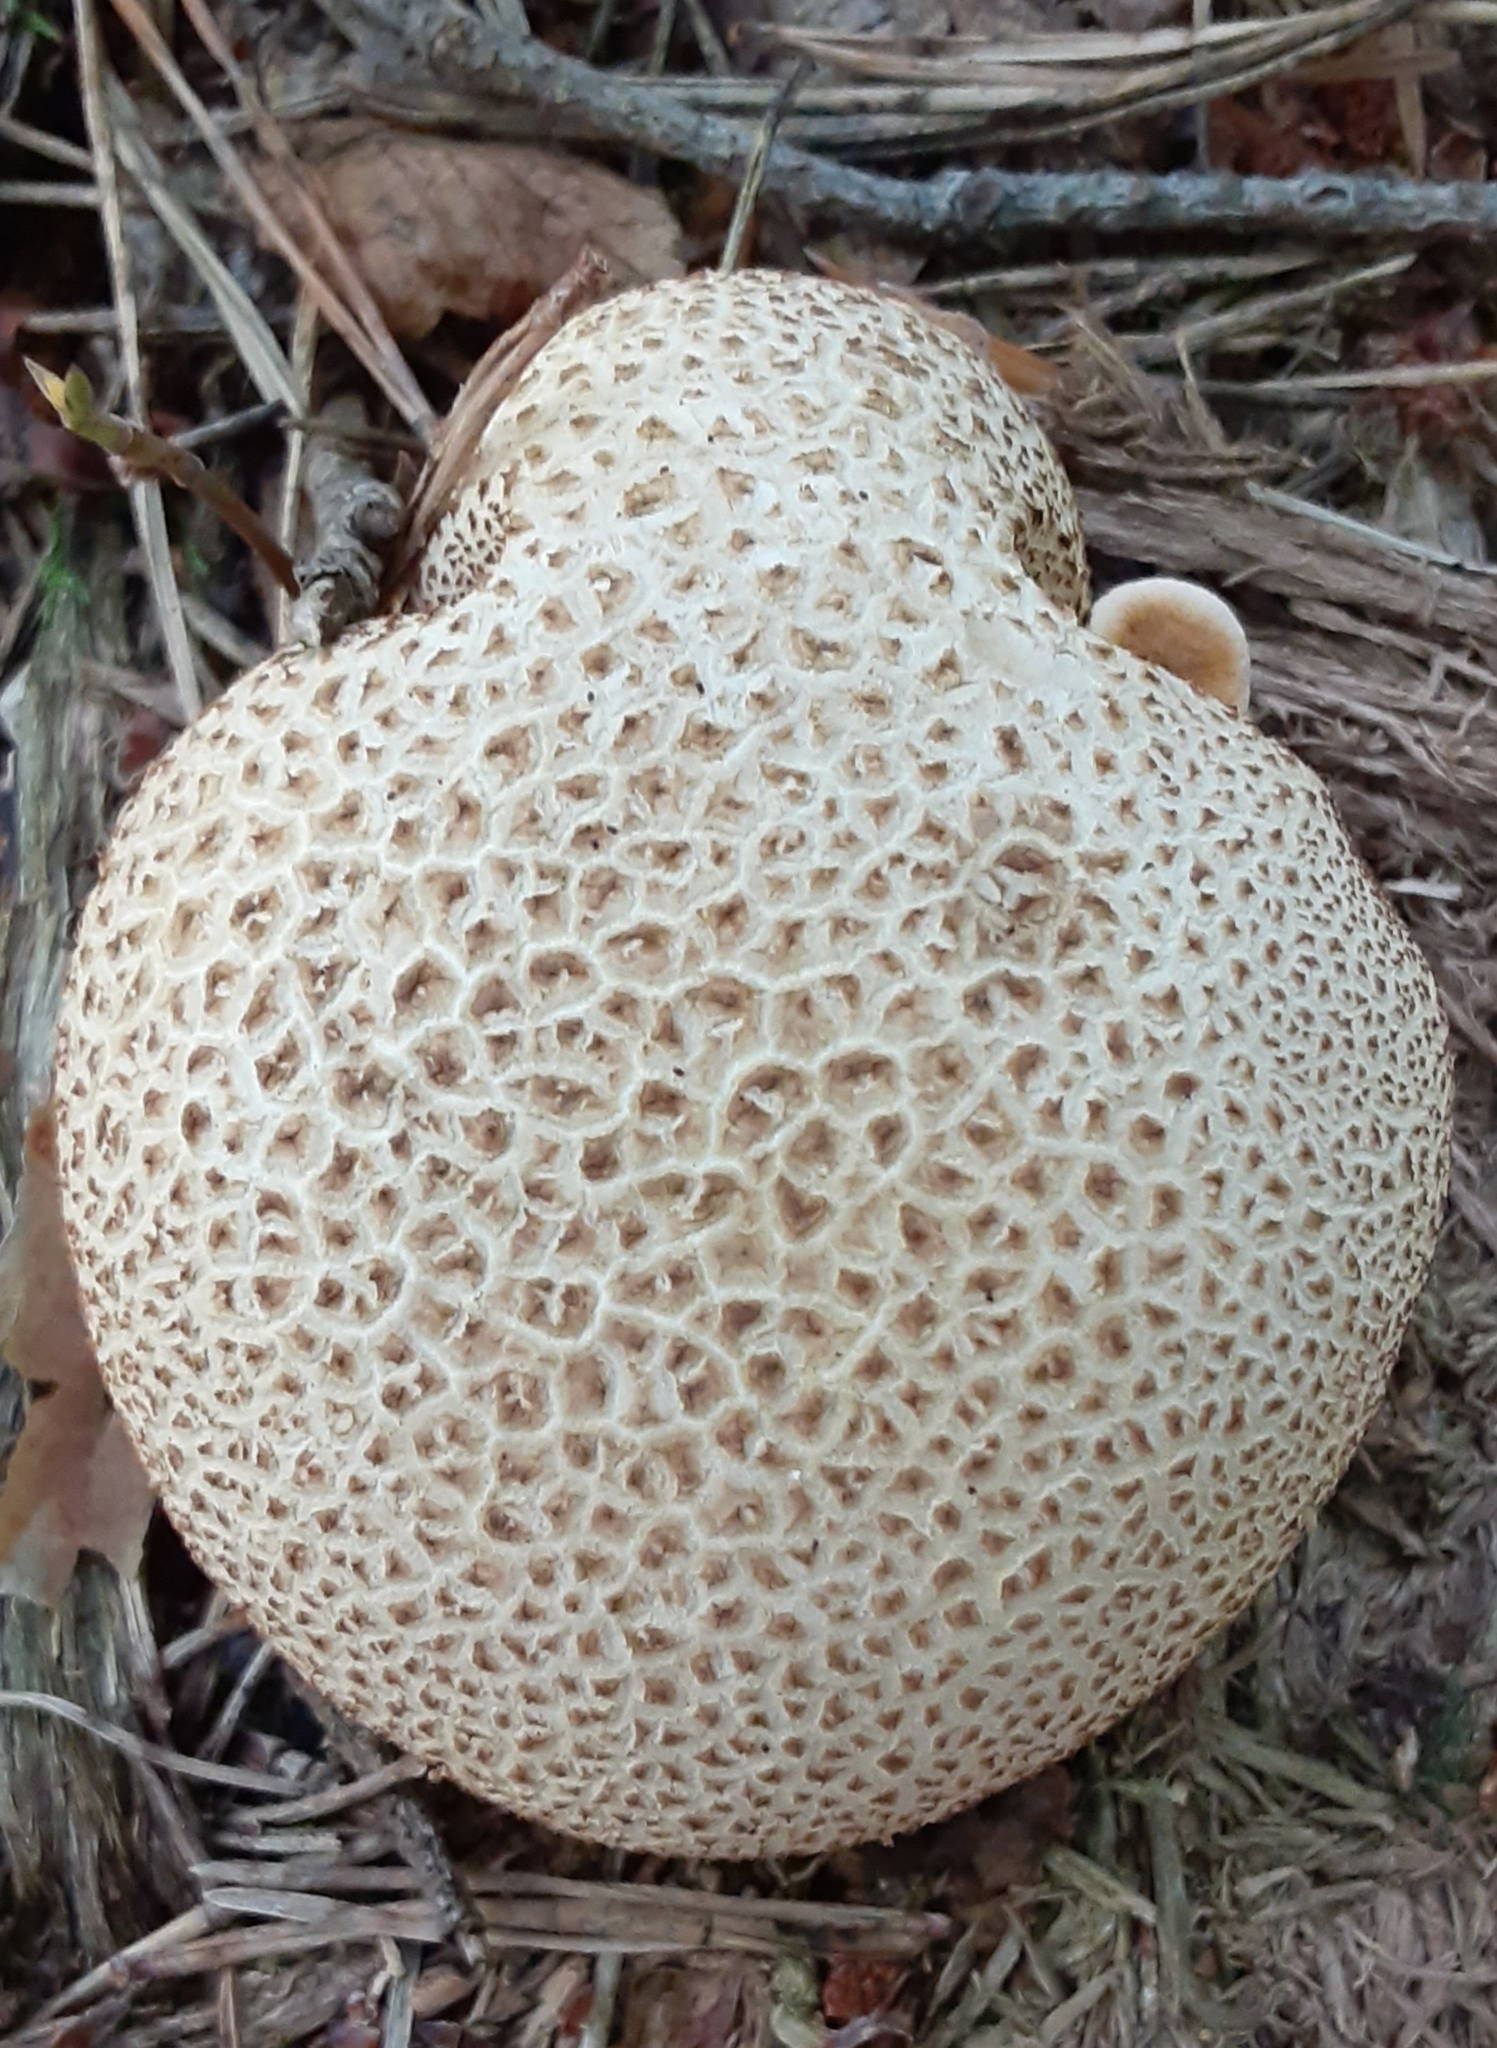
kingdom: Fungi
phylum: Basidiomycota
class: Agaricomycetes
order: Boletales
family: Sclerodermataceae
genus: Scleroderma
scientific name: Scleroderma citrinum
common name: Common earthball
